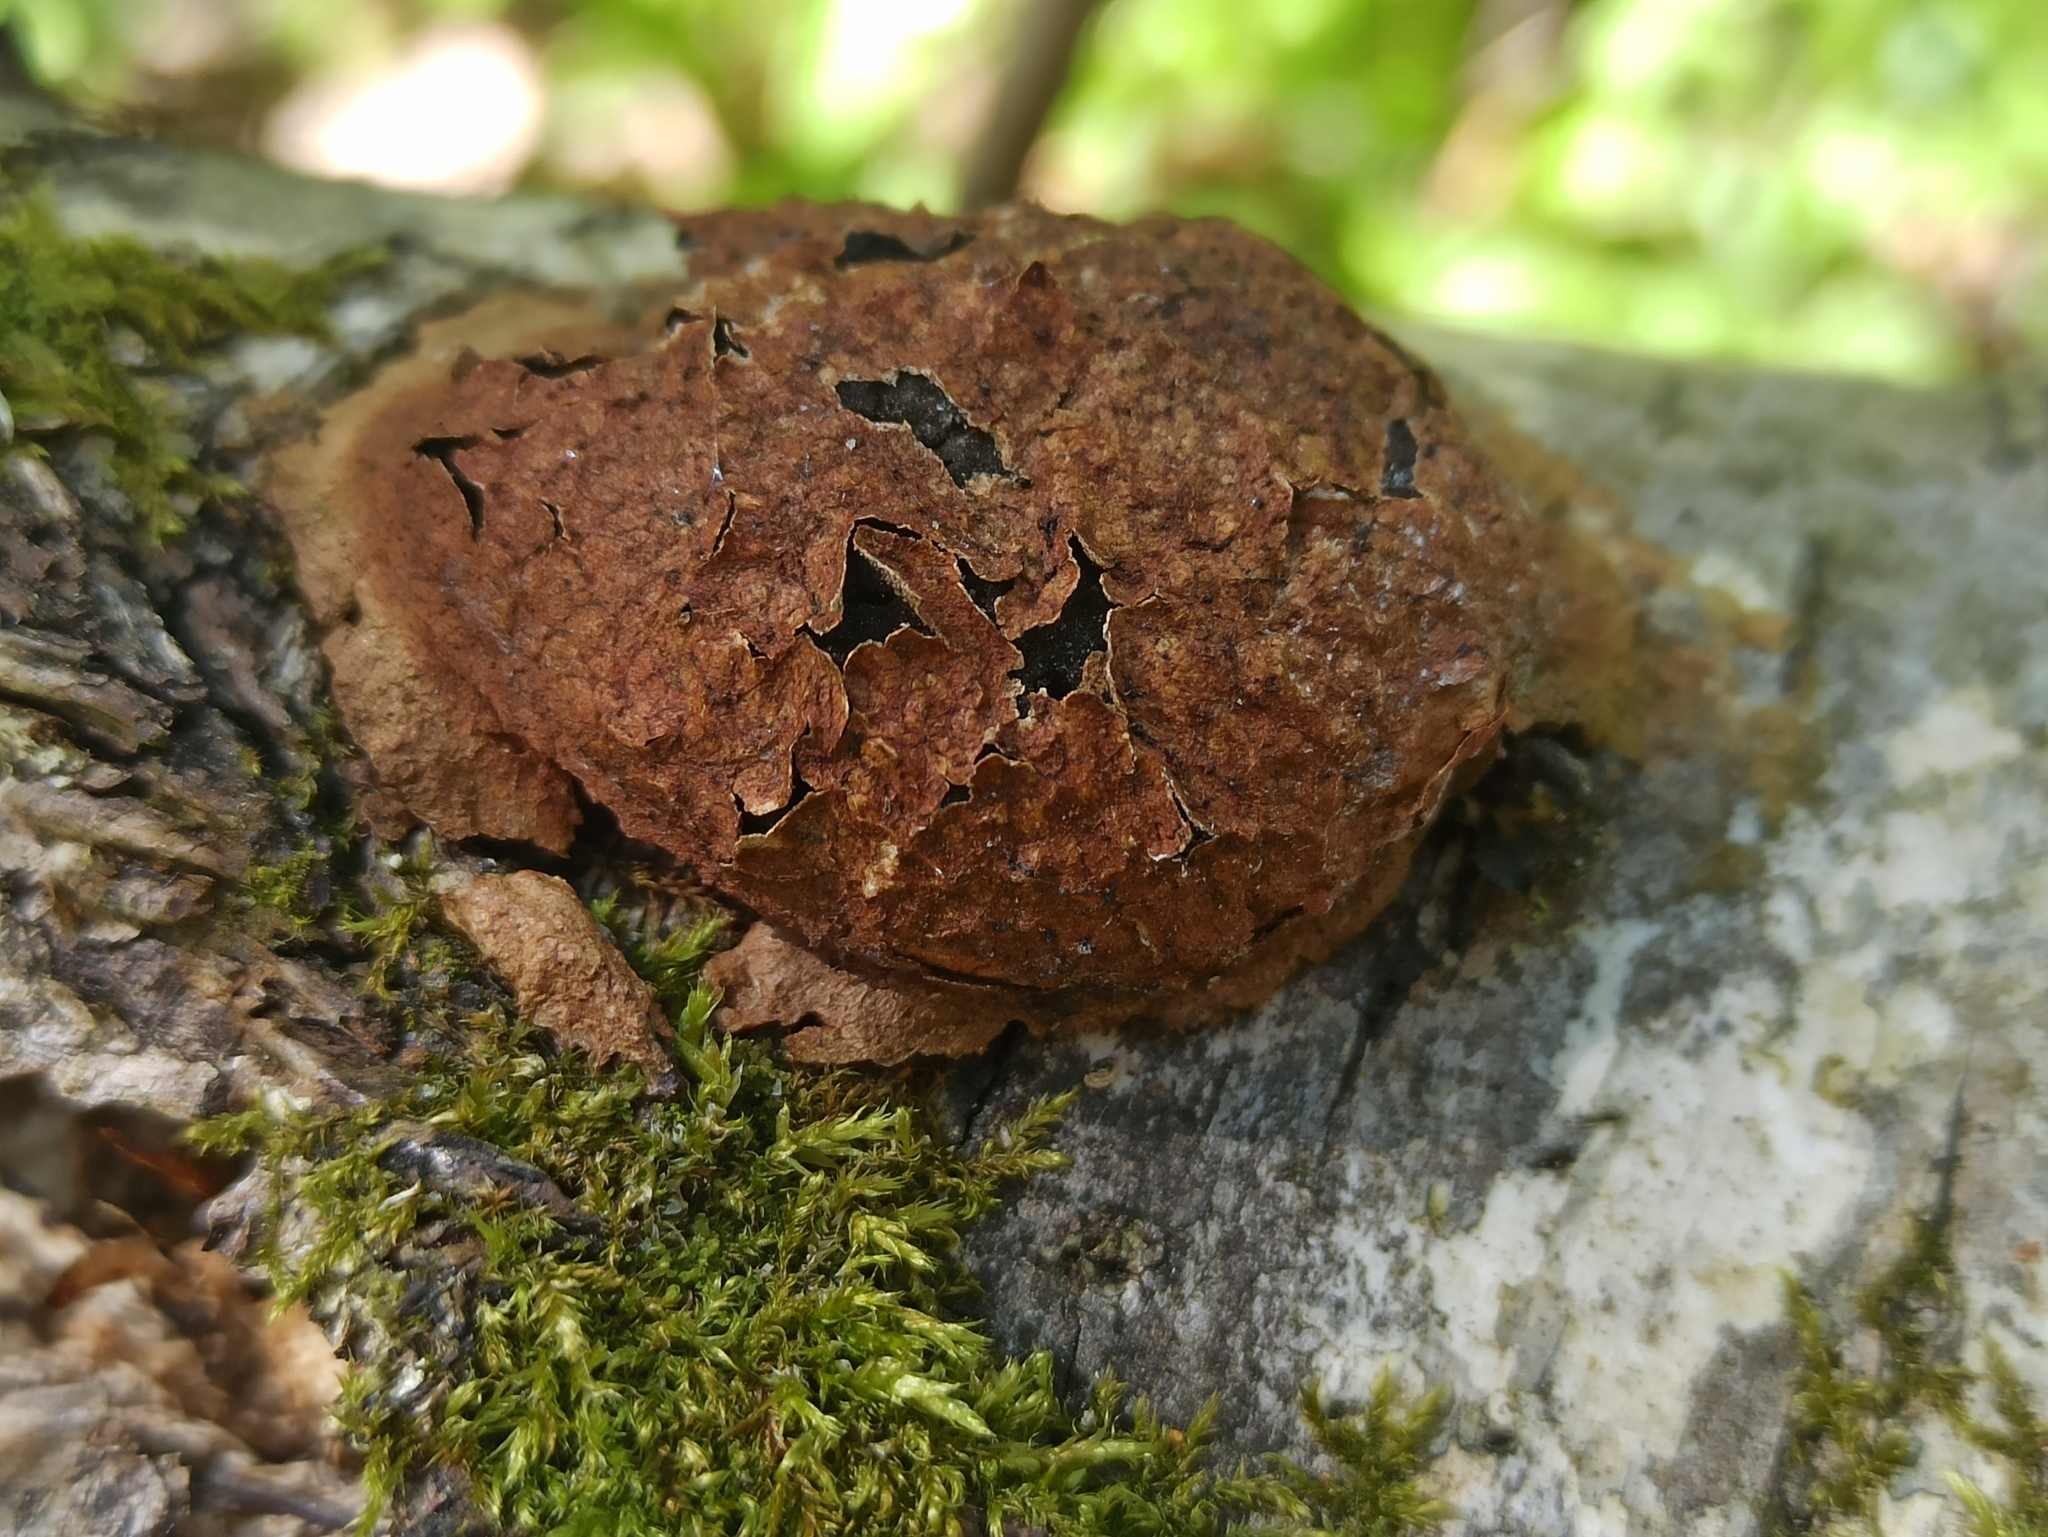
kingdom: Protozoa
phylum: Mycetozoa
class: Myxomycetes
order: Physarales
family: Physaraceae
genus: Fuligo
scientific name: Fuligo leviderma
